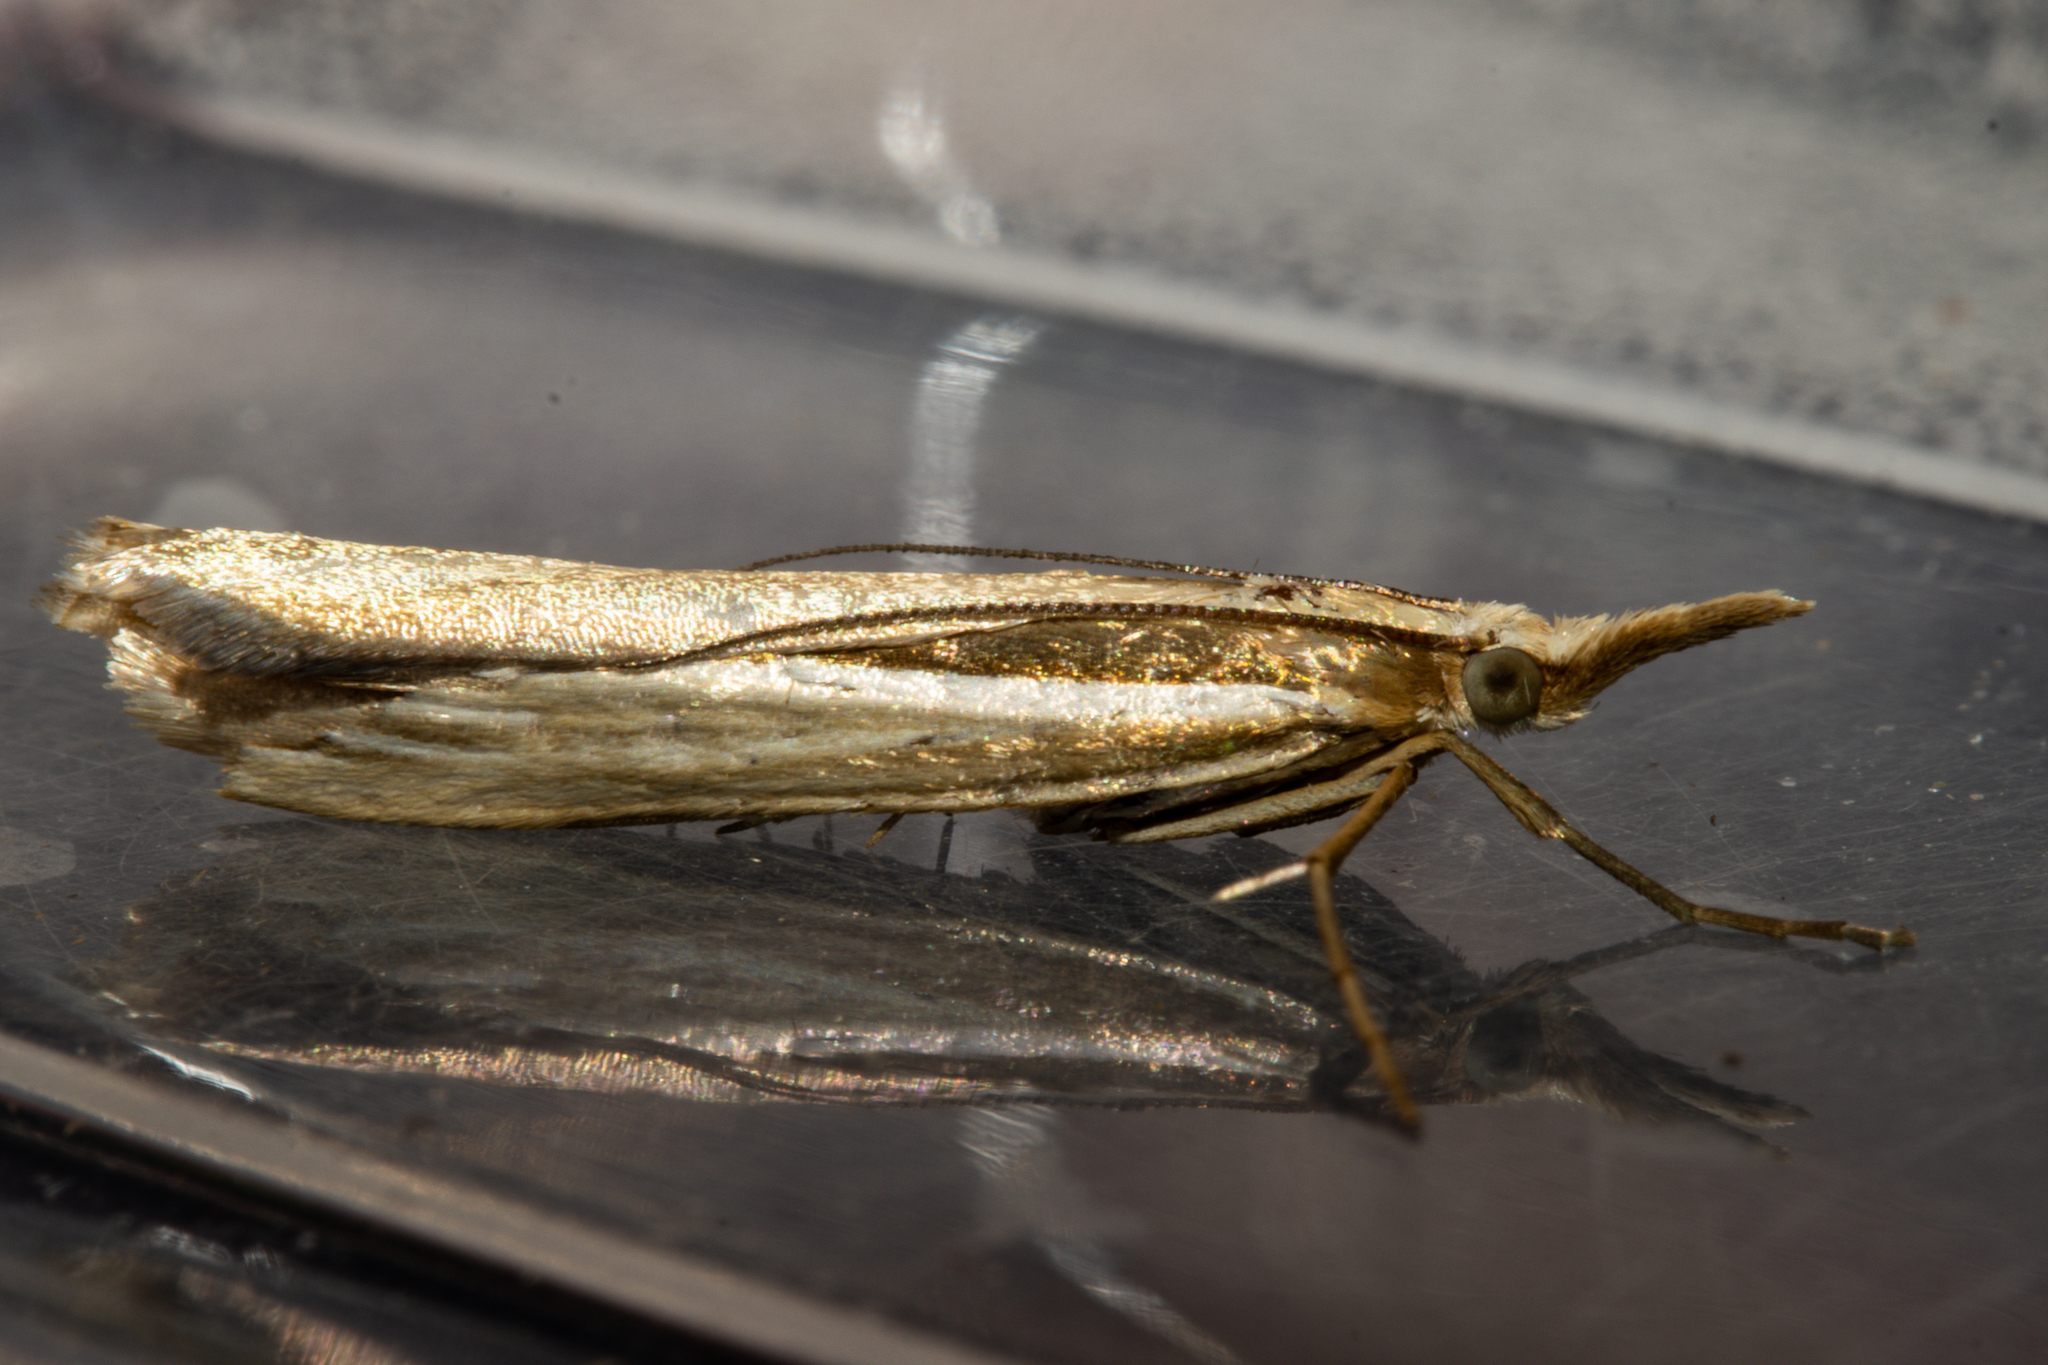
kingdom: Animalia
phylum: Arthropoda
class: Insecta
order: Lepidoptera
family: Crambidae
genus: Orocrambus
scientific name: Orocrambus ramosellus
